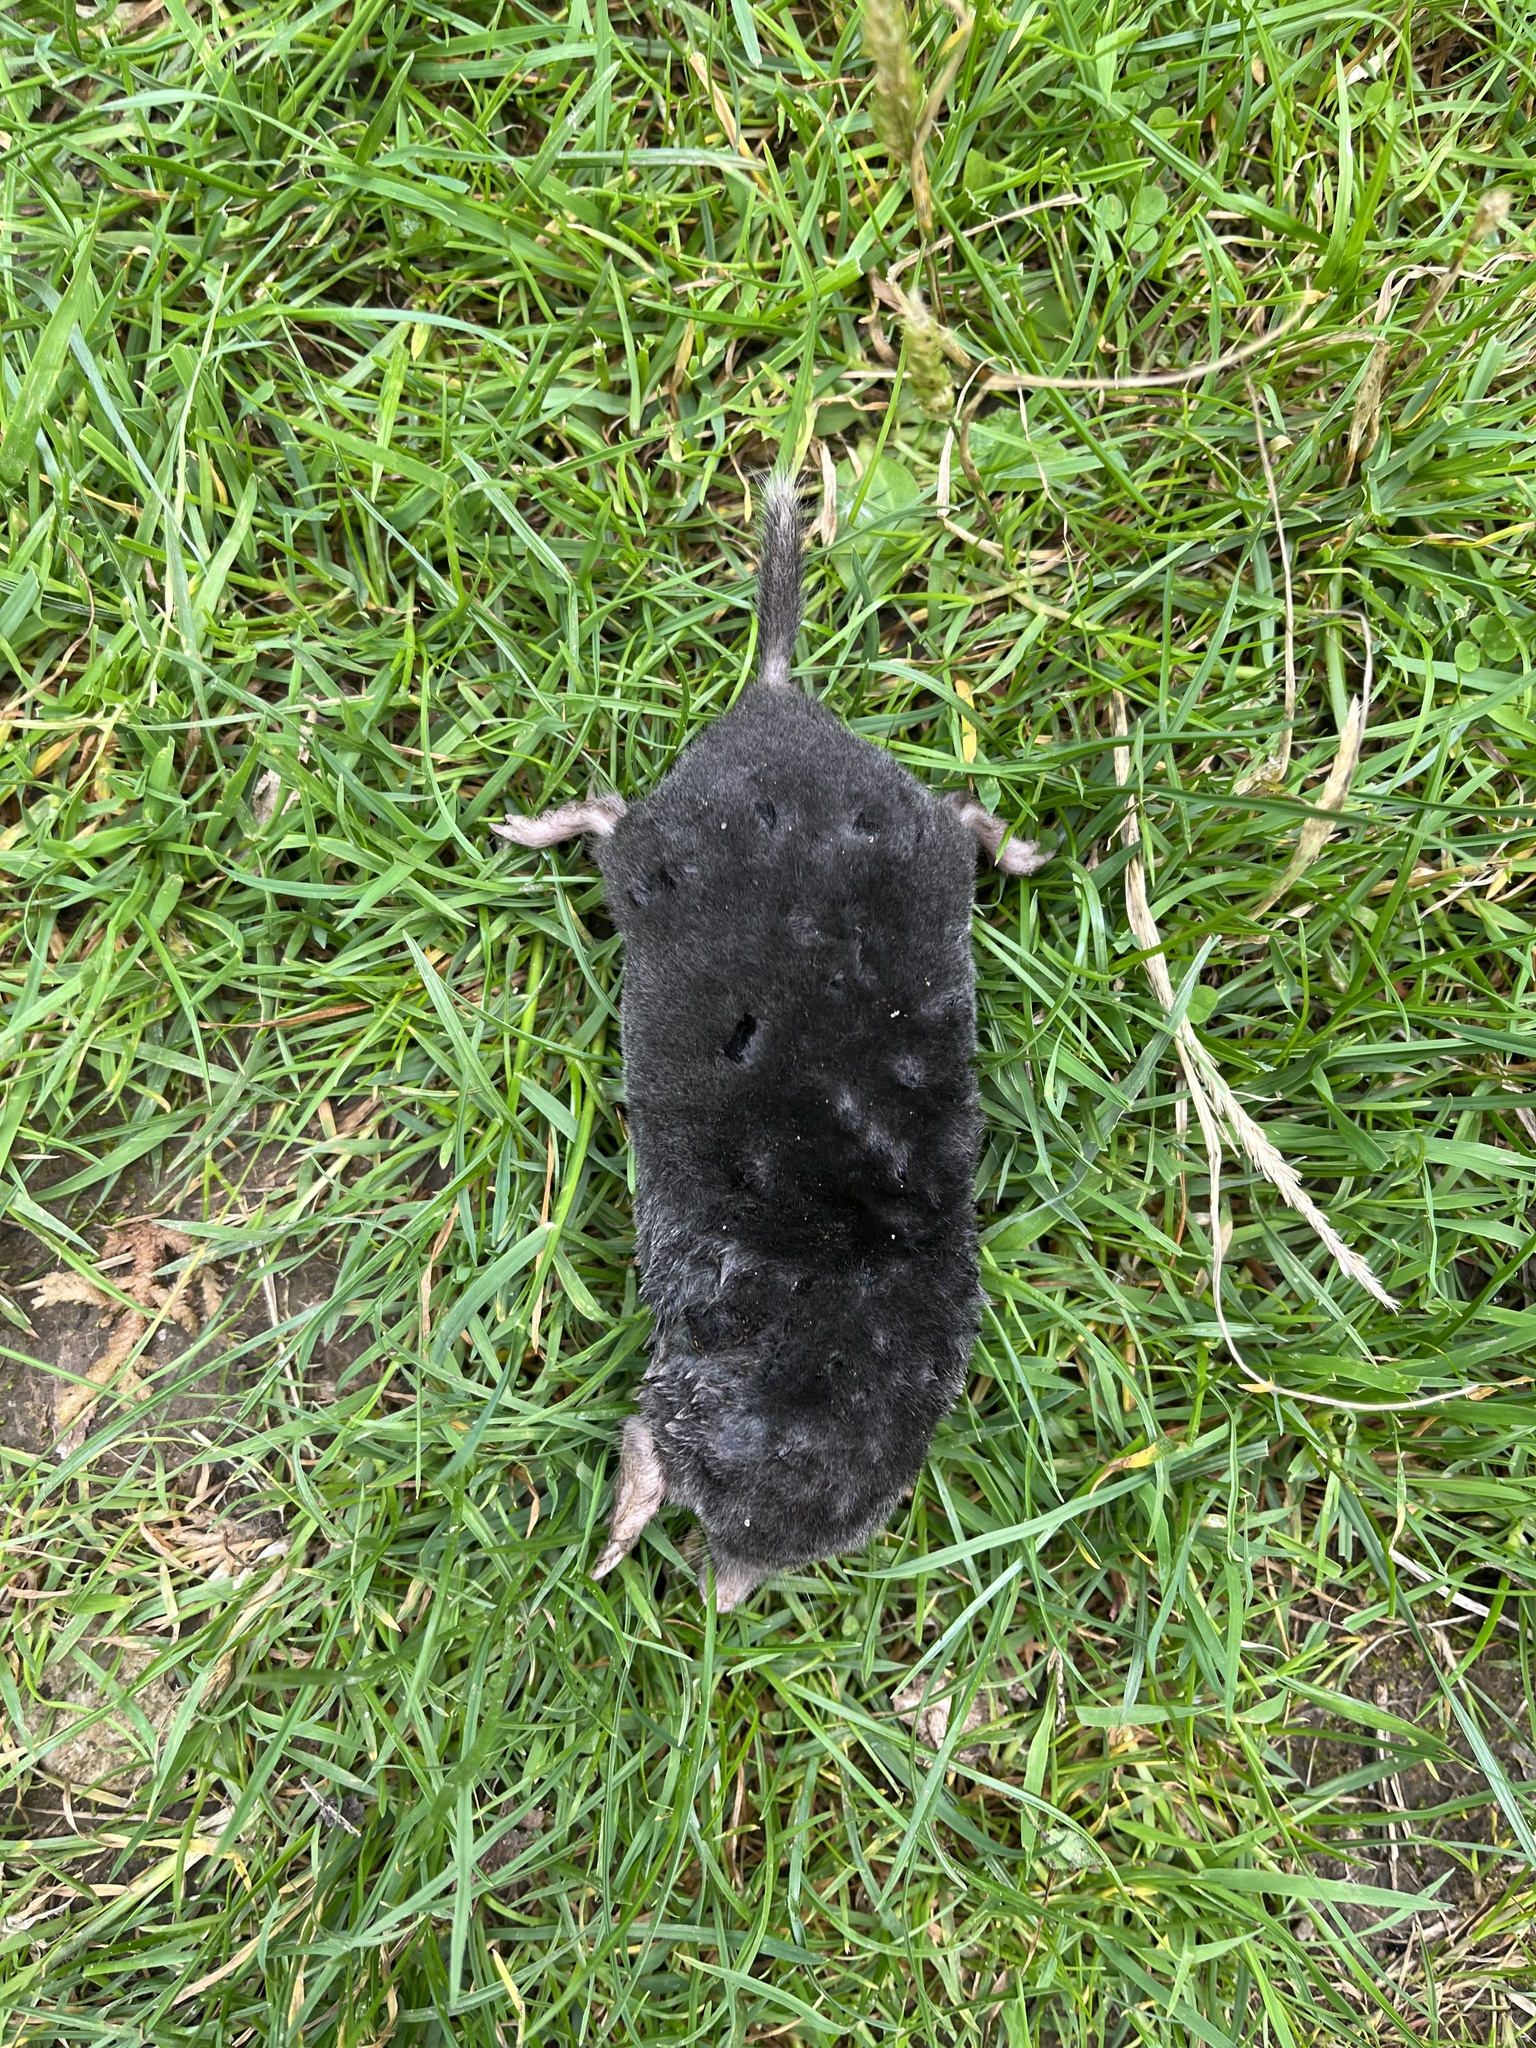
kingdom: Animalia
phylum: Chordata
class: Mammalia
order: Soricomorpha
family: Talpidae
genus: Talpa
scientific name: Talpa europaea
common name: European mole
